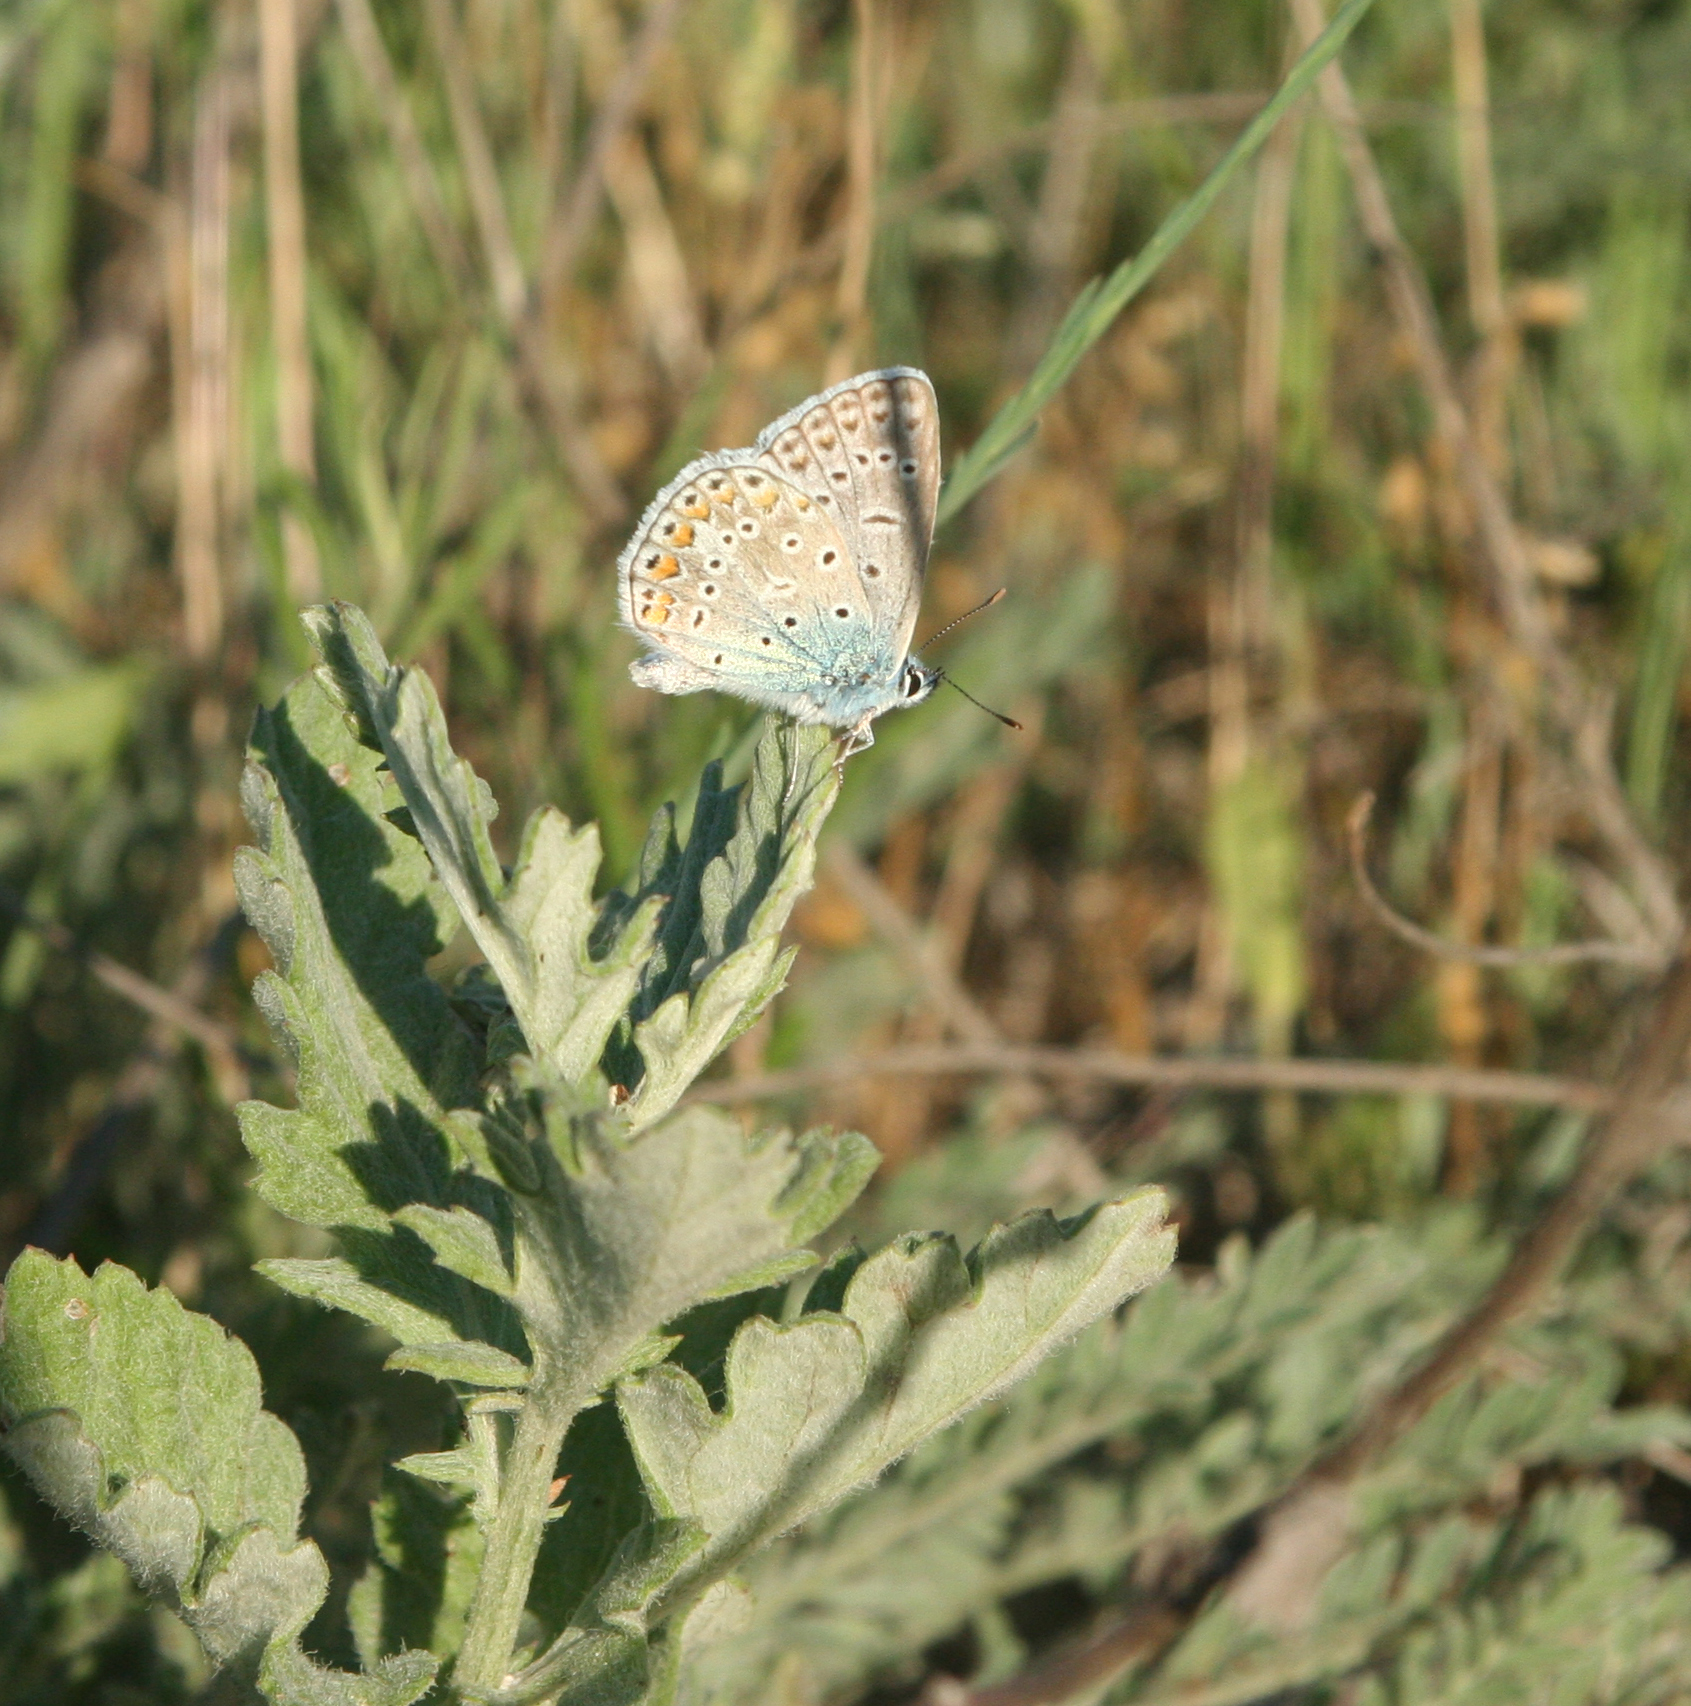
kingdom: Animalia
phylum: Arthropoda
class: Insecta
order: Lepidoptera
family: Lycaenidae
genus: Polyommatus
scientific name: Polyommatus icarus
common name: Common blue
